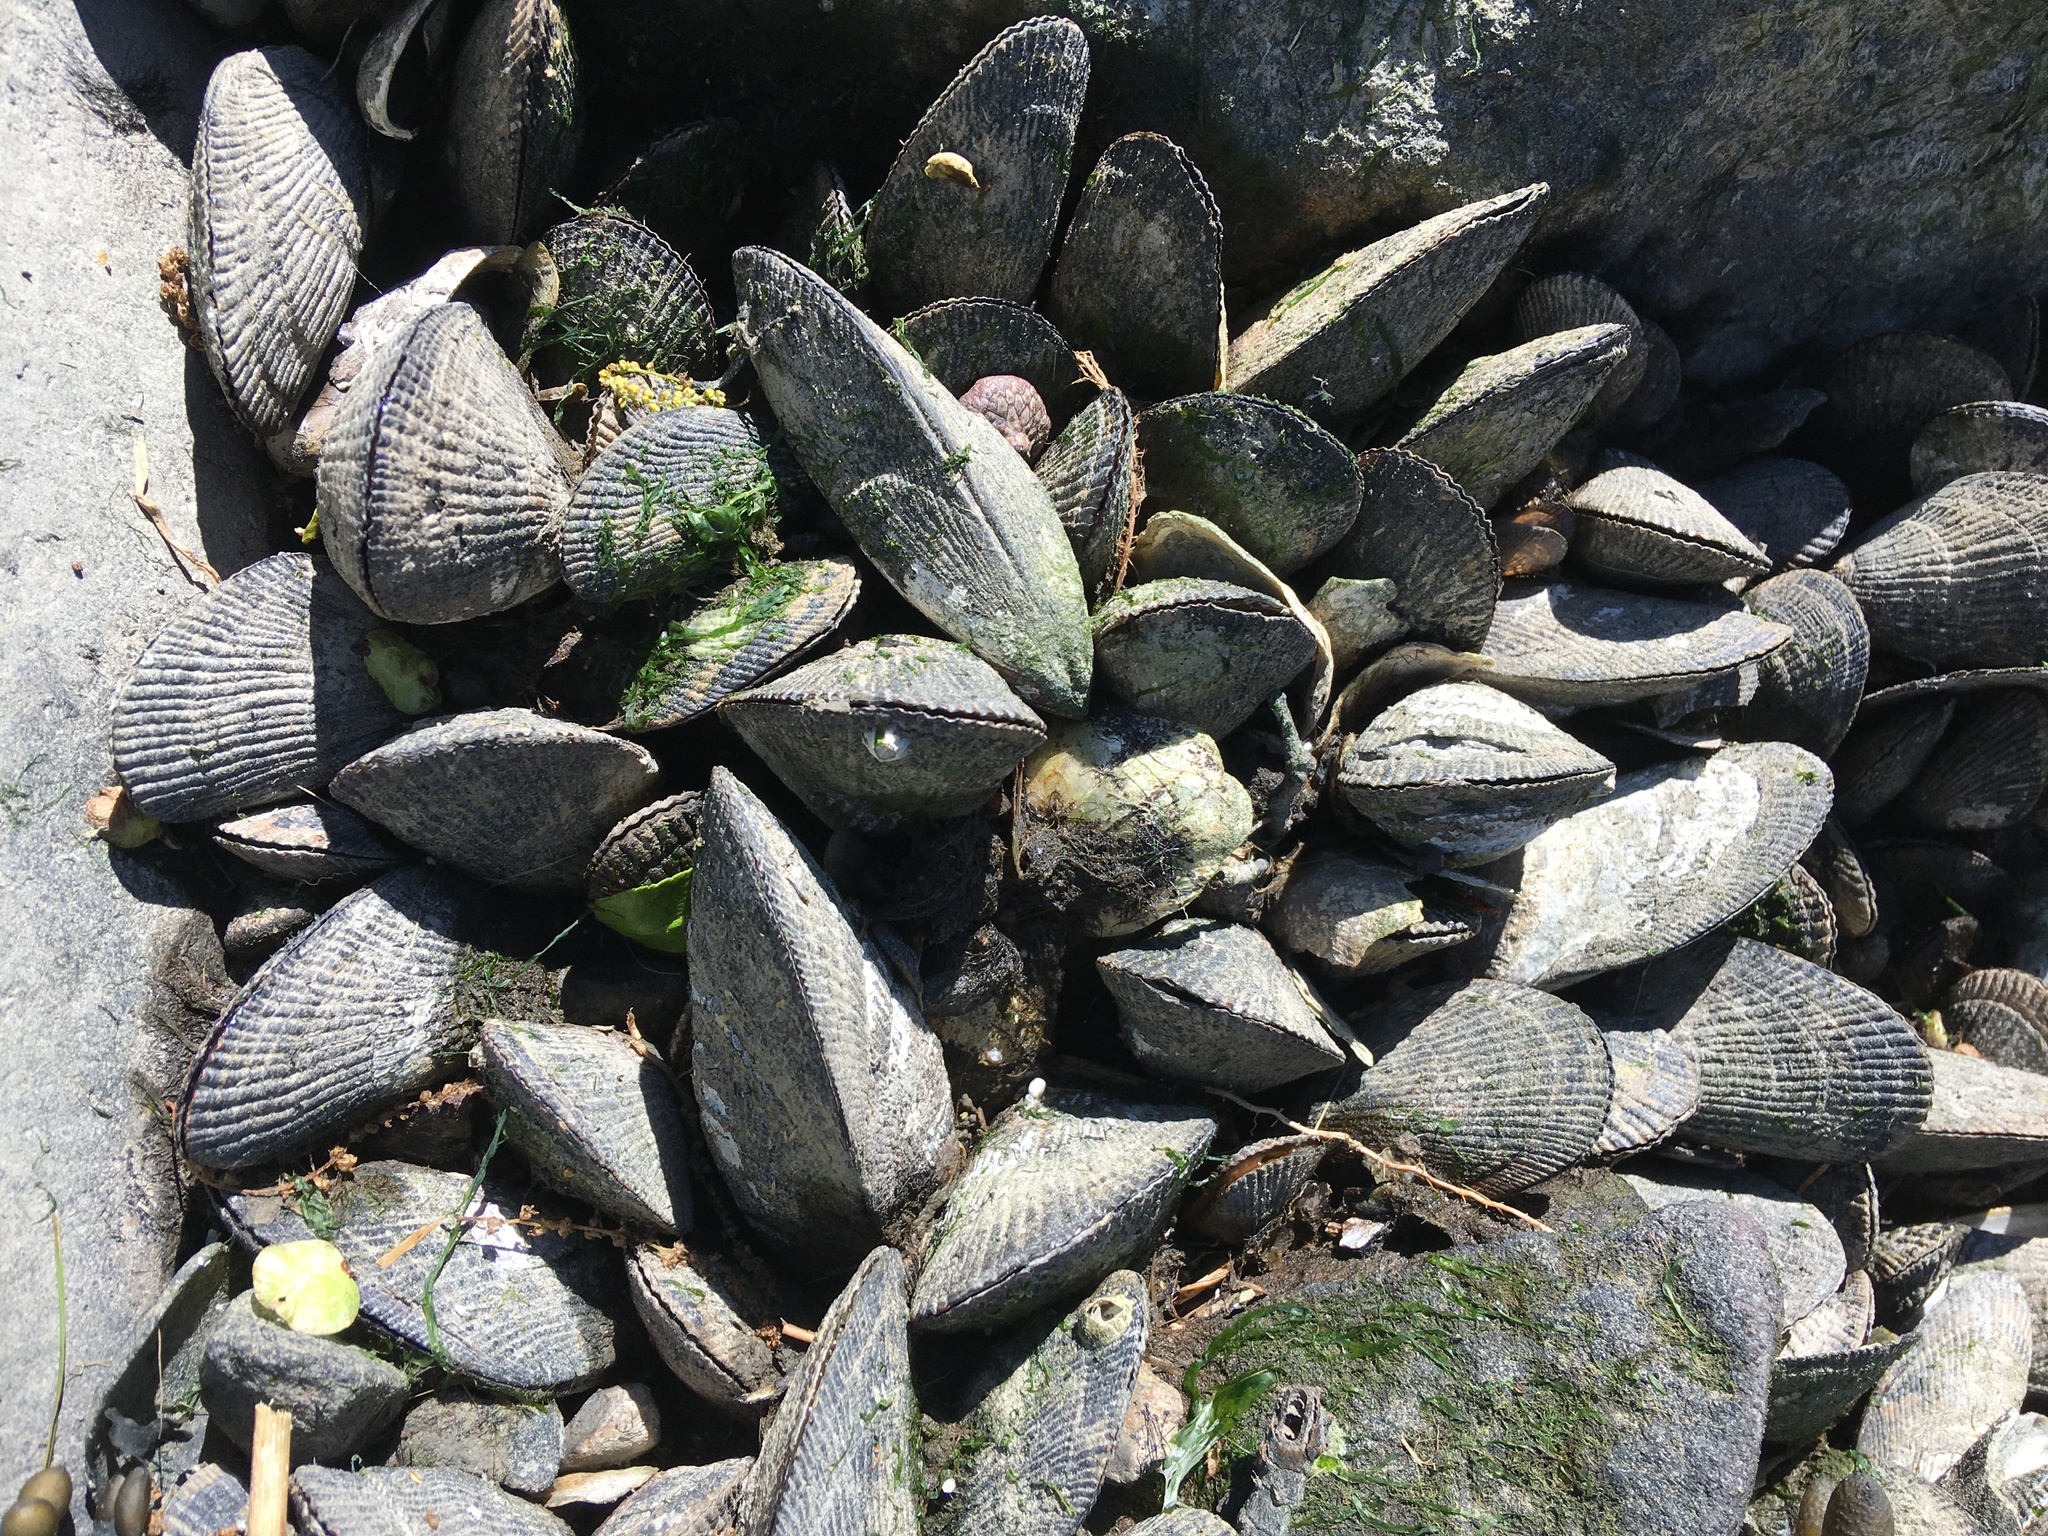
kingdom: Animalia
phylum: Mollusca
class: Bivalvia
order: Mytilida
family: Mytilidae
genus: Geukensia
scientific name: Geukensia demissa
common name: Ribbed mussel
